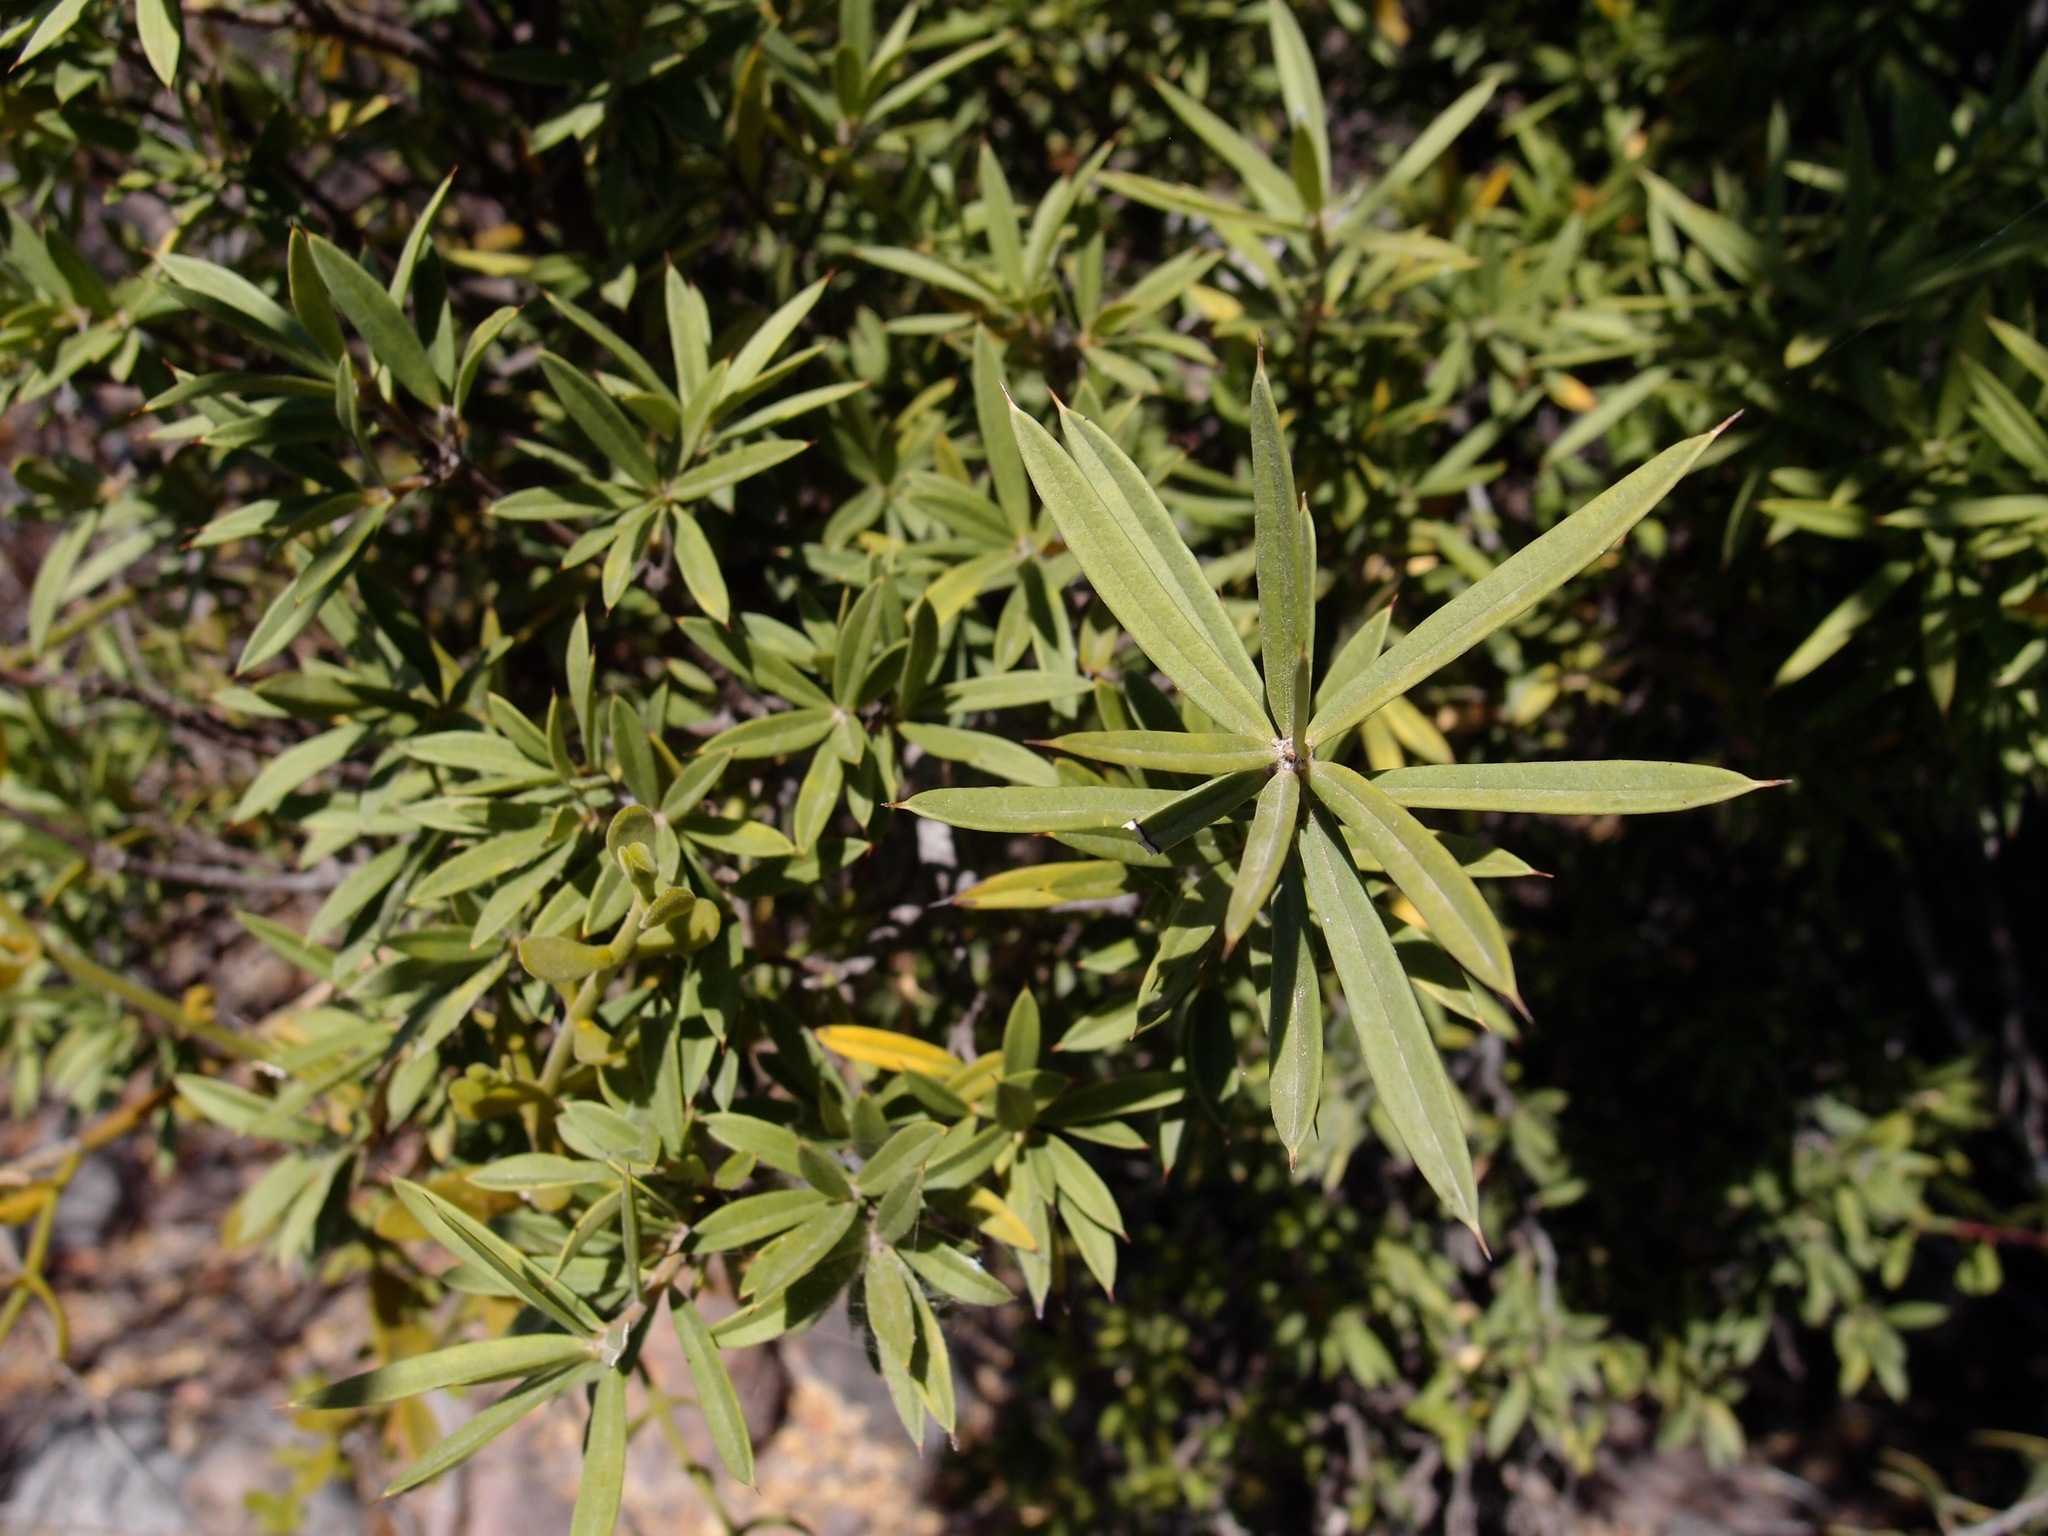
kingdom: Plantae
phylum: Tracheophyta
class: Magnoliopsida
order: Ericales
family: Primulaceae
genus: Bonellia
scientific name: Bonellia macrocarpa
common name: Primrose
